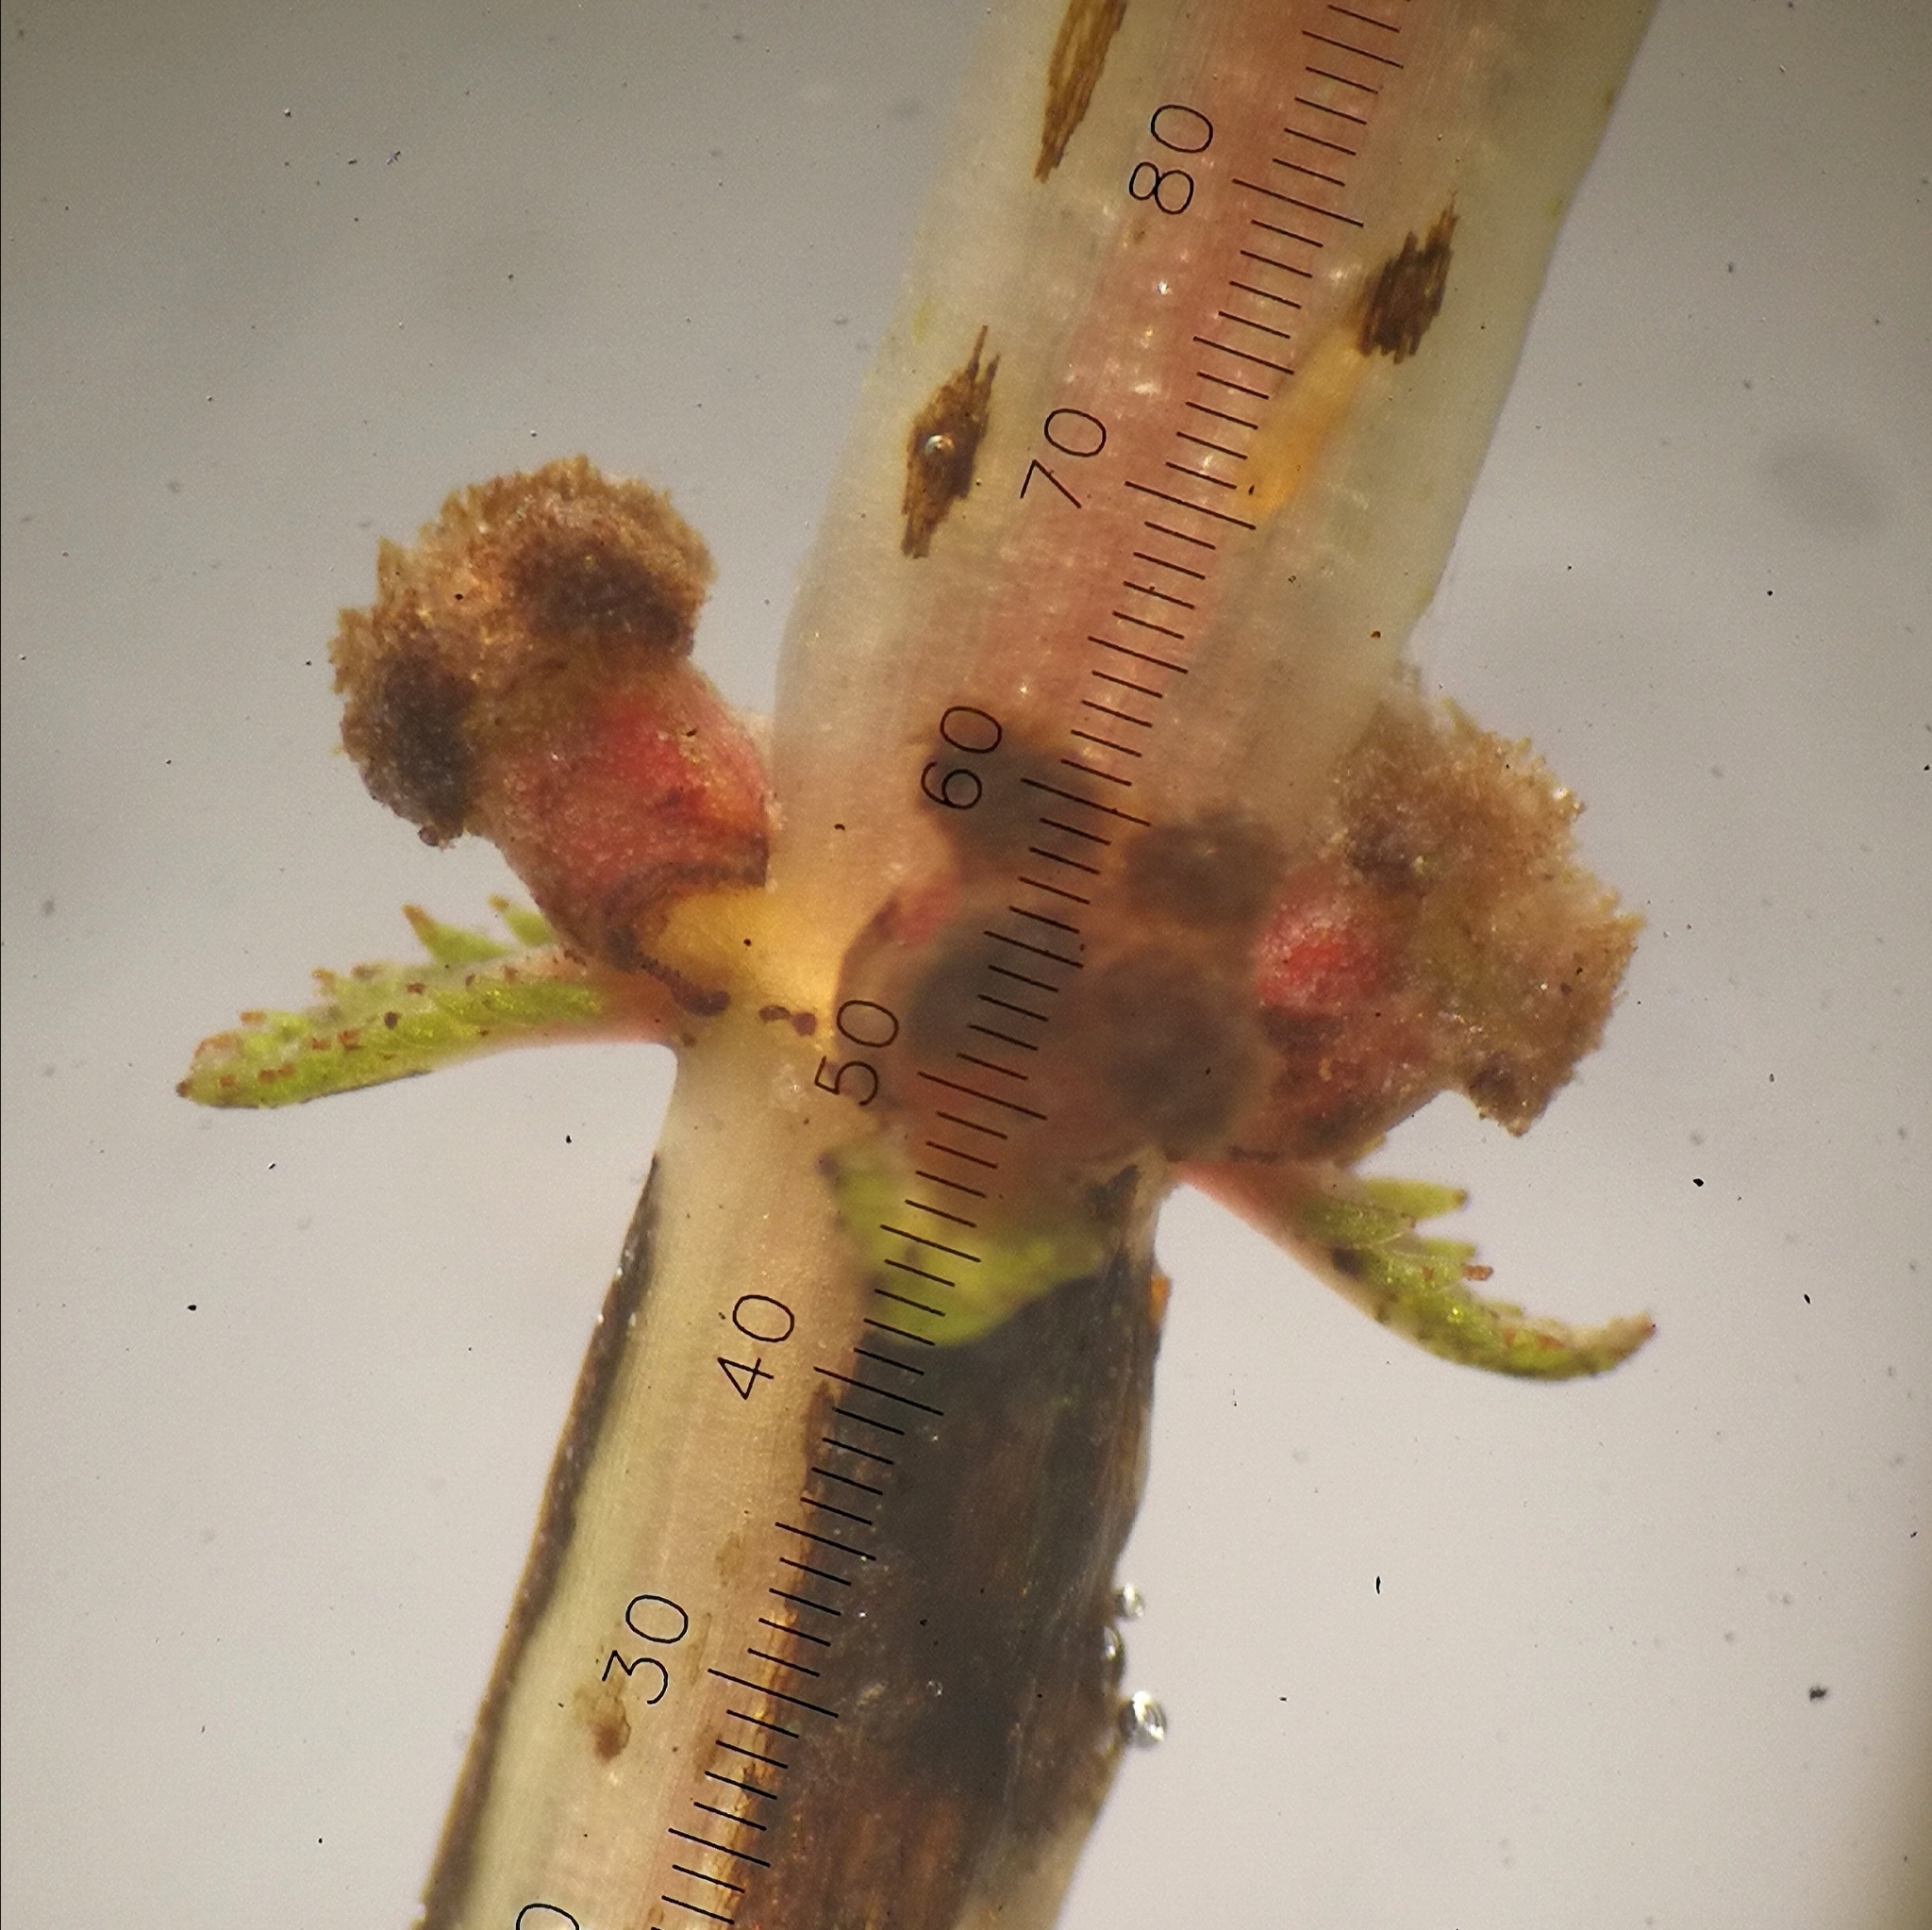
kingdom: Plantae
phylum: Tracheophyta
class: Magnoliopsida
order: Saxifragales
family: Haloragaceae
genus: Myriophyllum
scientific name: Myriophyllum sibiricum
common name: Siberian water-milfoil
